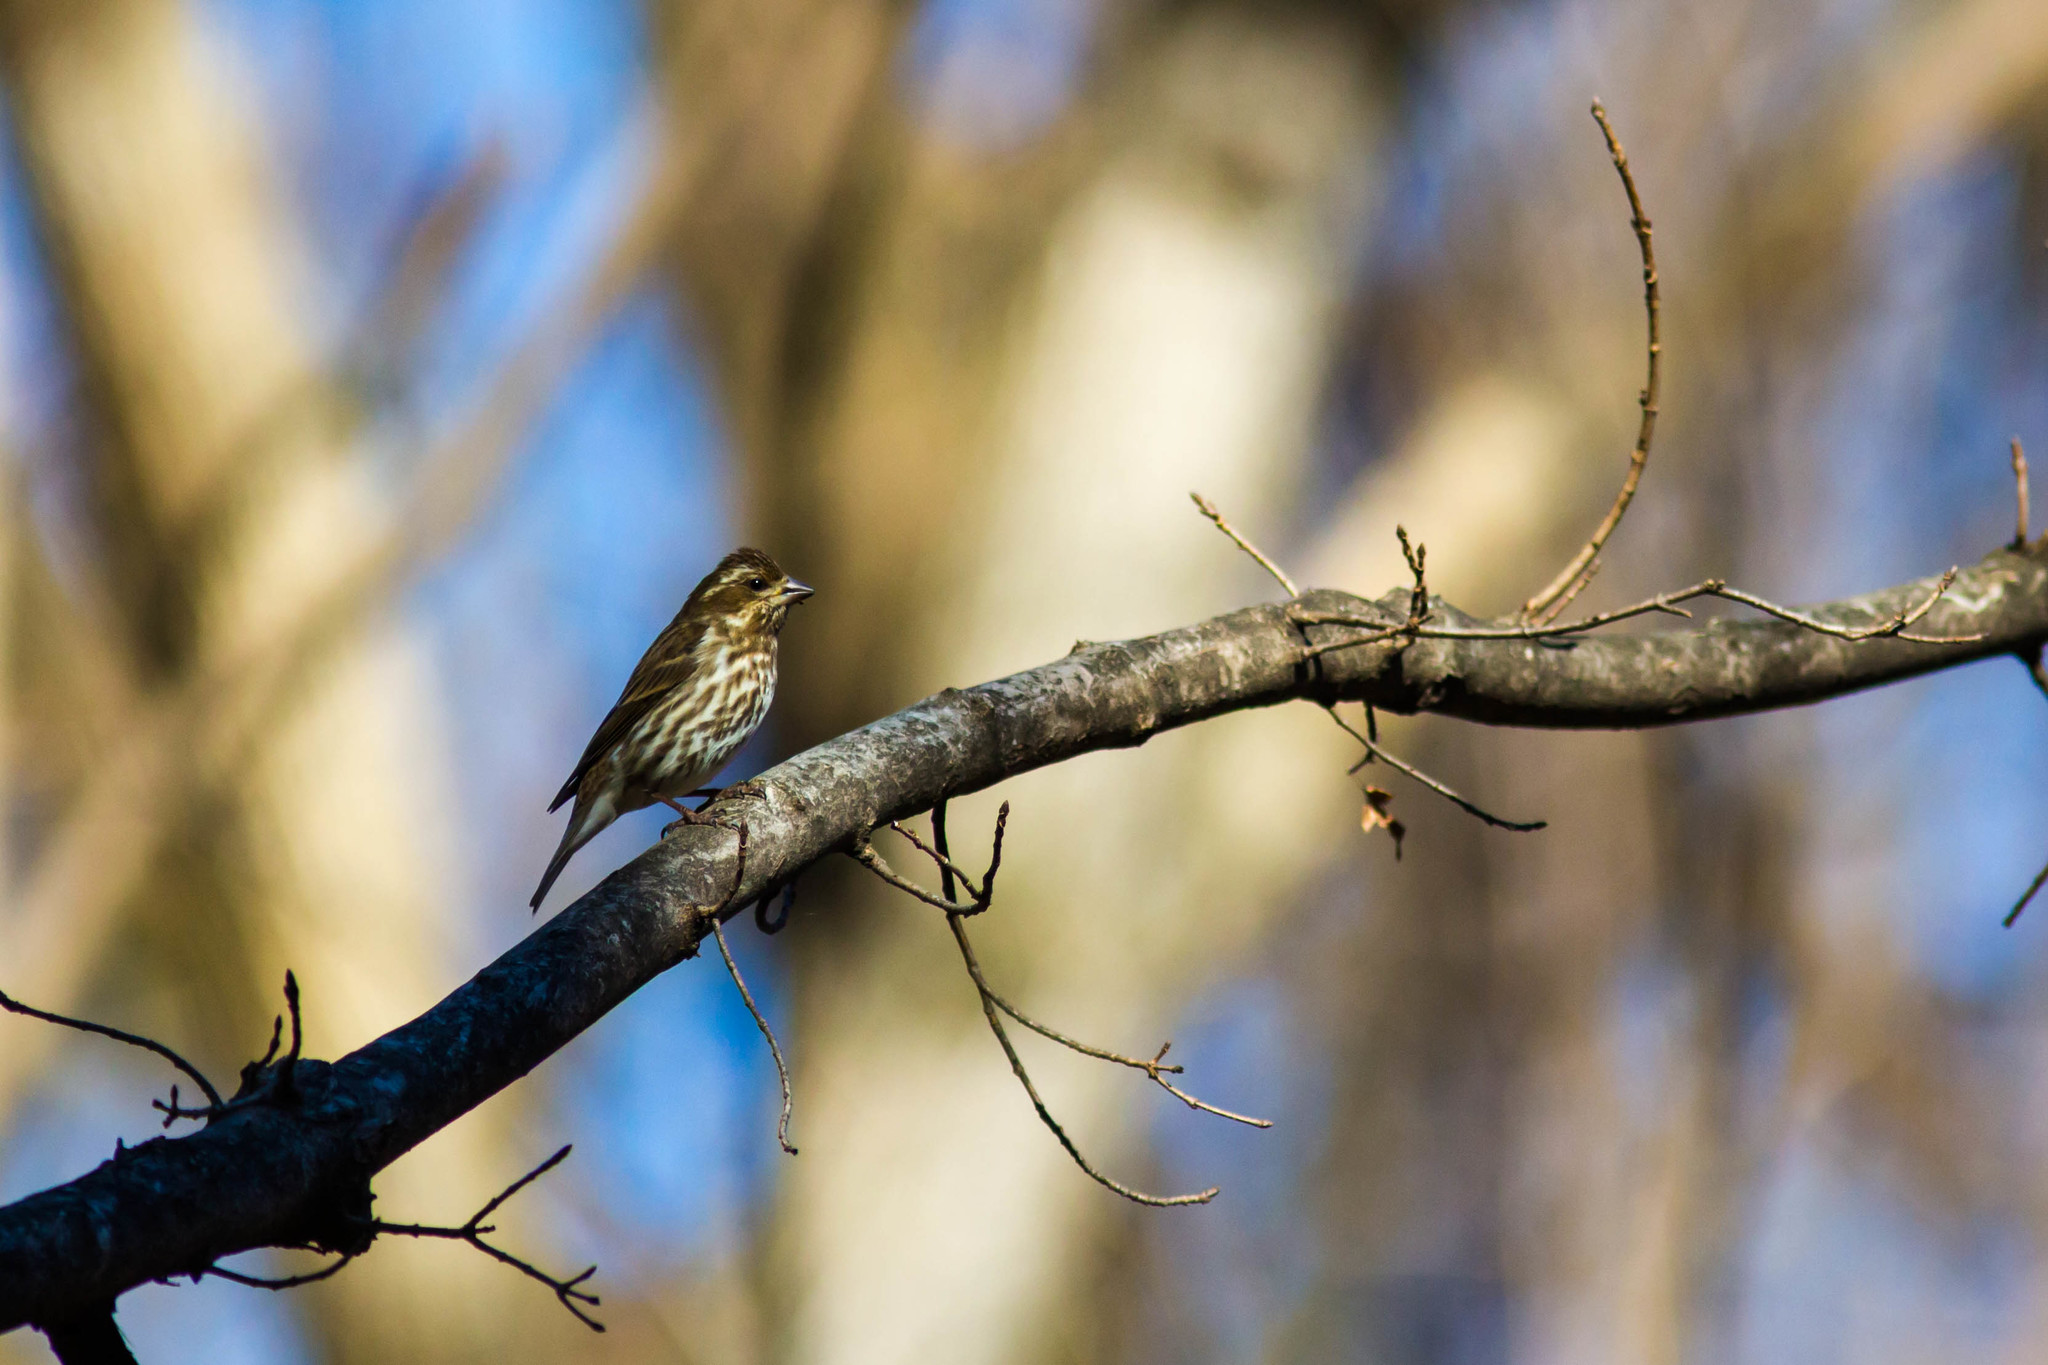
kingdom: Animalia
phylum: Chordata
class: Aves
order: Passeriformes
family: Fringillidae
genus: Haemorhous
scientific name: Haemorhous purpureus
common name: Purple finch
